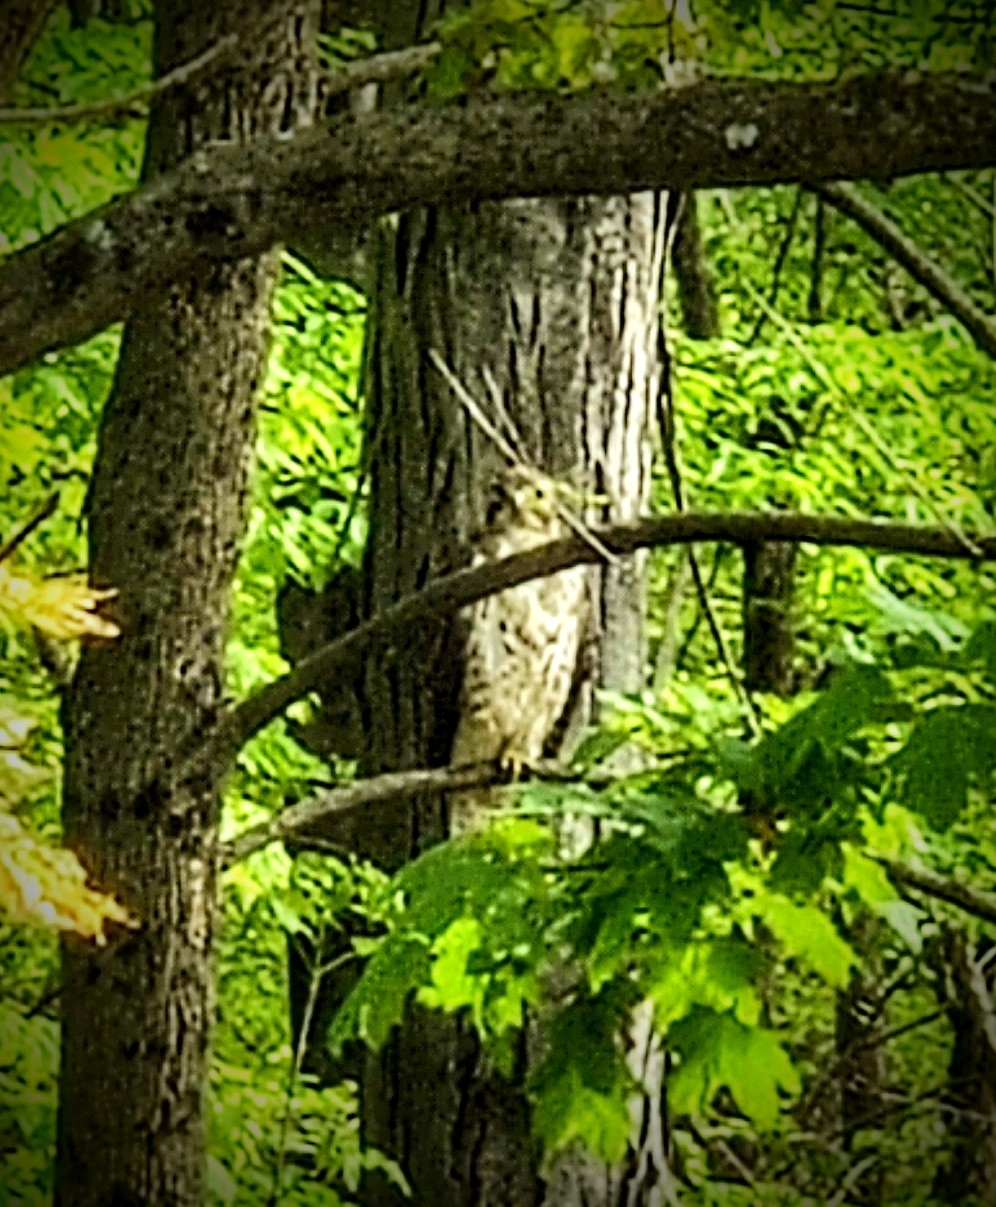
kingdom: Animalia
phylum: Chordata
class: Aves
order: Accipitriformes
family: Accipitridae
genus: Buteo
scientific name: Buteo platypterus
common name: Broad-winged hawk
